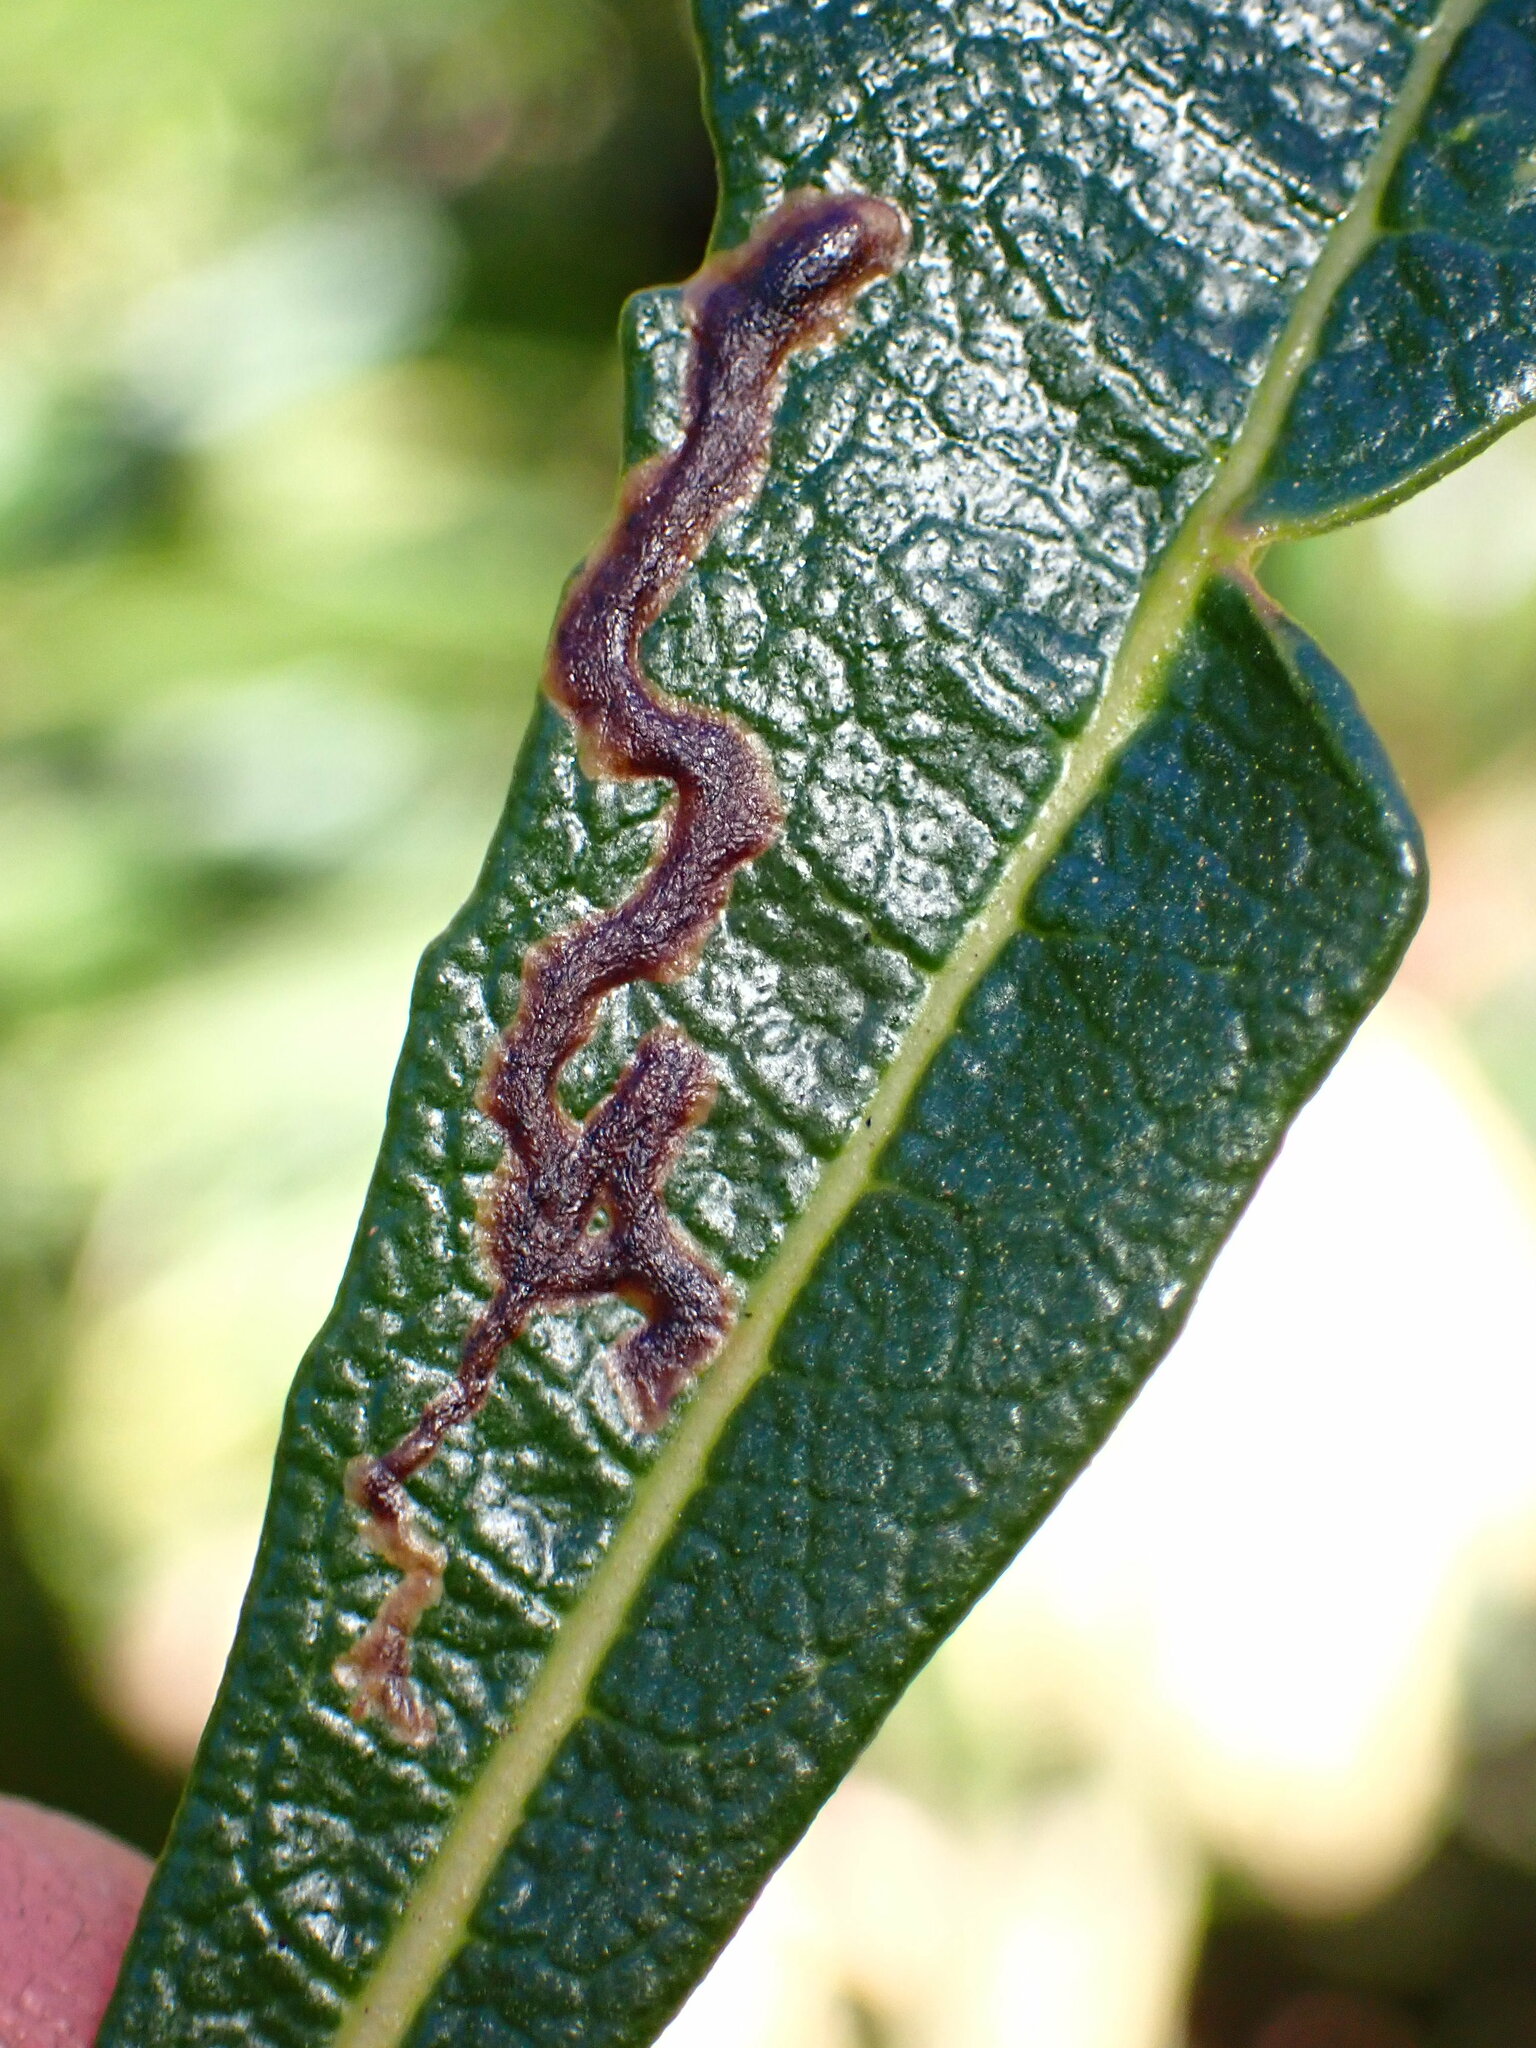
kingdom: Animalia
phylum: Arthropoda
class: Insecta
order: Diptera
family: Agromyzidae
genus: Phytomyza
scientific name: Phytomyza eriodictyi
